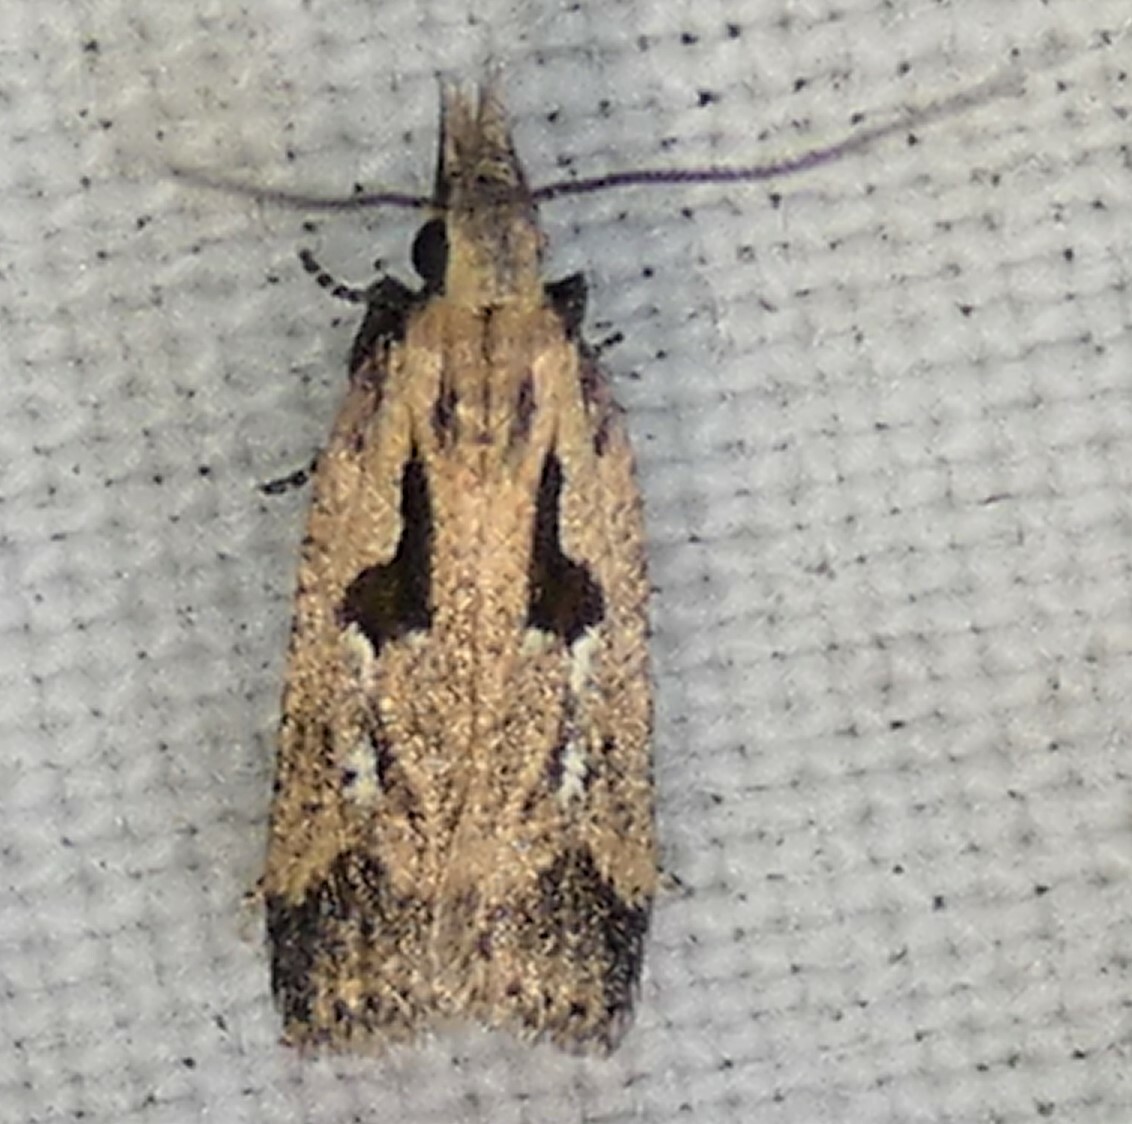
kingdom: Animalia
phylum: Arthropoda
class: Insecta
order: Lepidoptera
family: Gelechiidae
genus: Dichomeris
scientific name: Dichomeris aglaia
